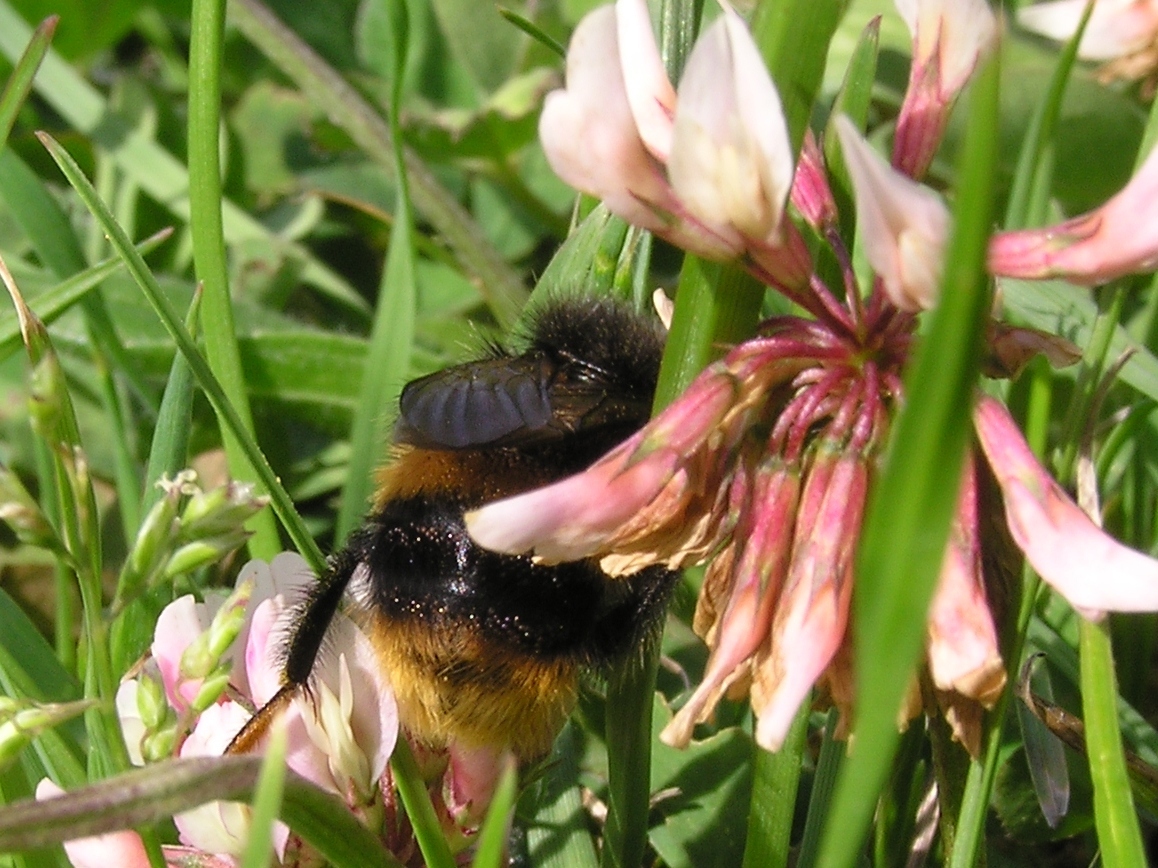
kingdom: Animalia
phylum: Arthropoda
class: Insecta
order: Hymenoptera
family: Apidae
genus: Bombus
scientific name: Bombus terrestris
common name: Buff-tailed bumblebee
